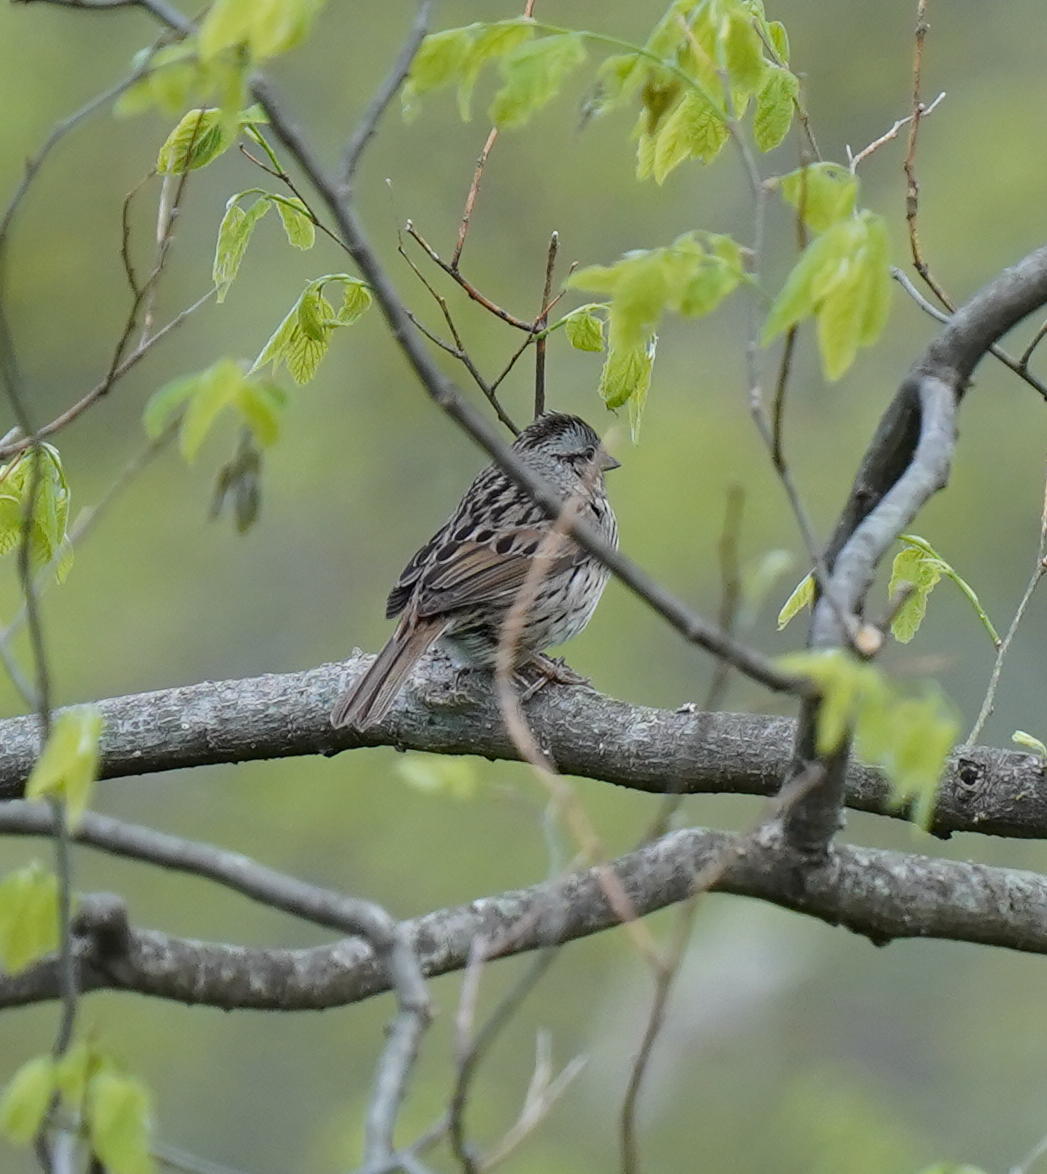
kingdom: Animalia
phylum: Chordata
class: Aves
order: Passeriformes
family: Passerellidae
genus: Melospiza
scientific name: Melospiza lincolnii
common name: Lincoln's sparrow
